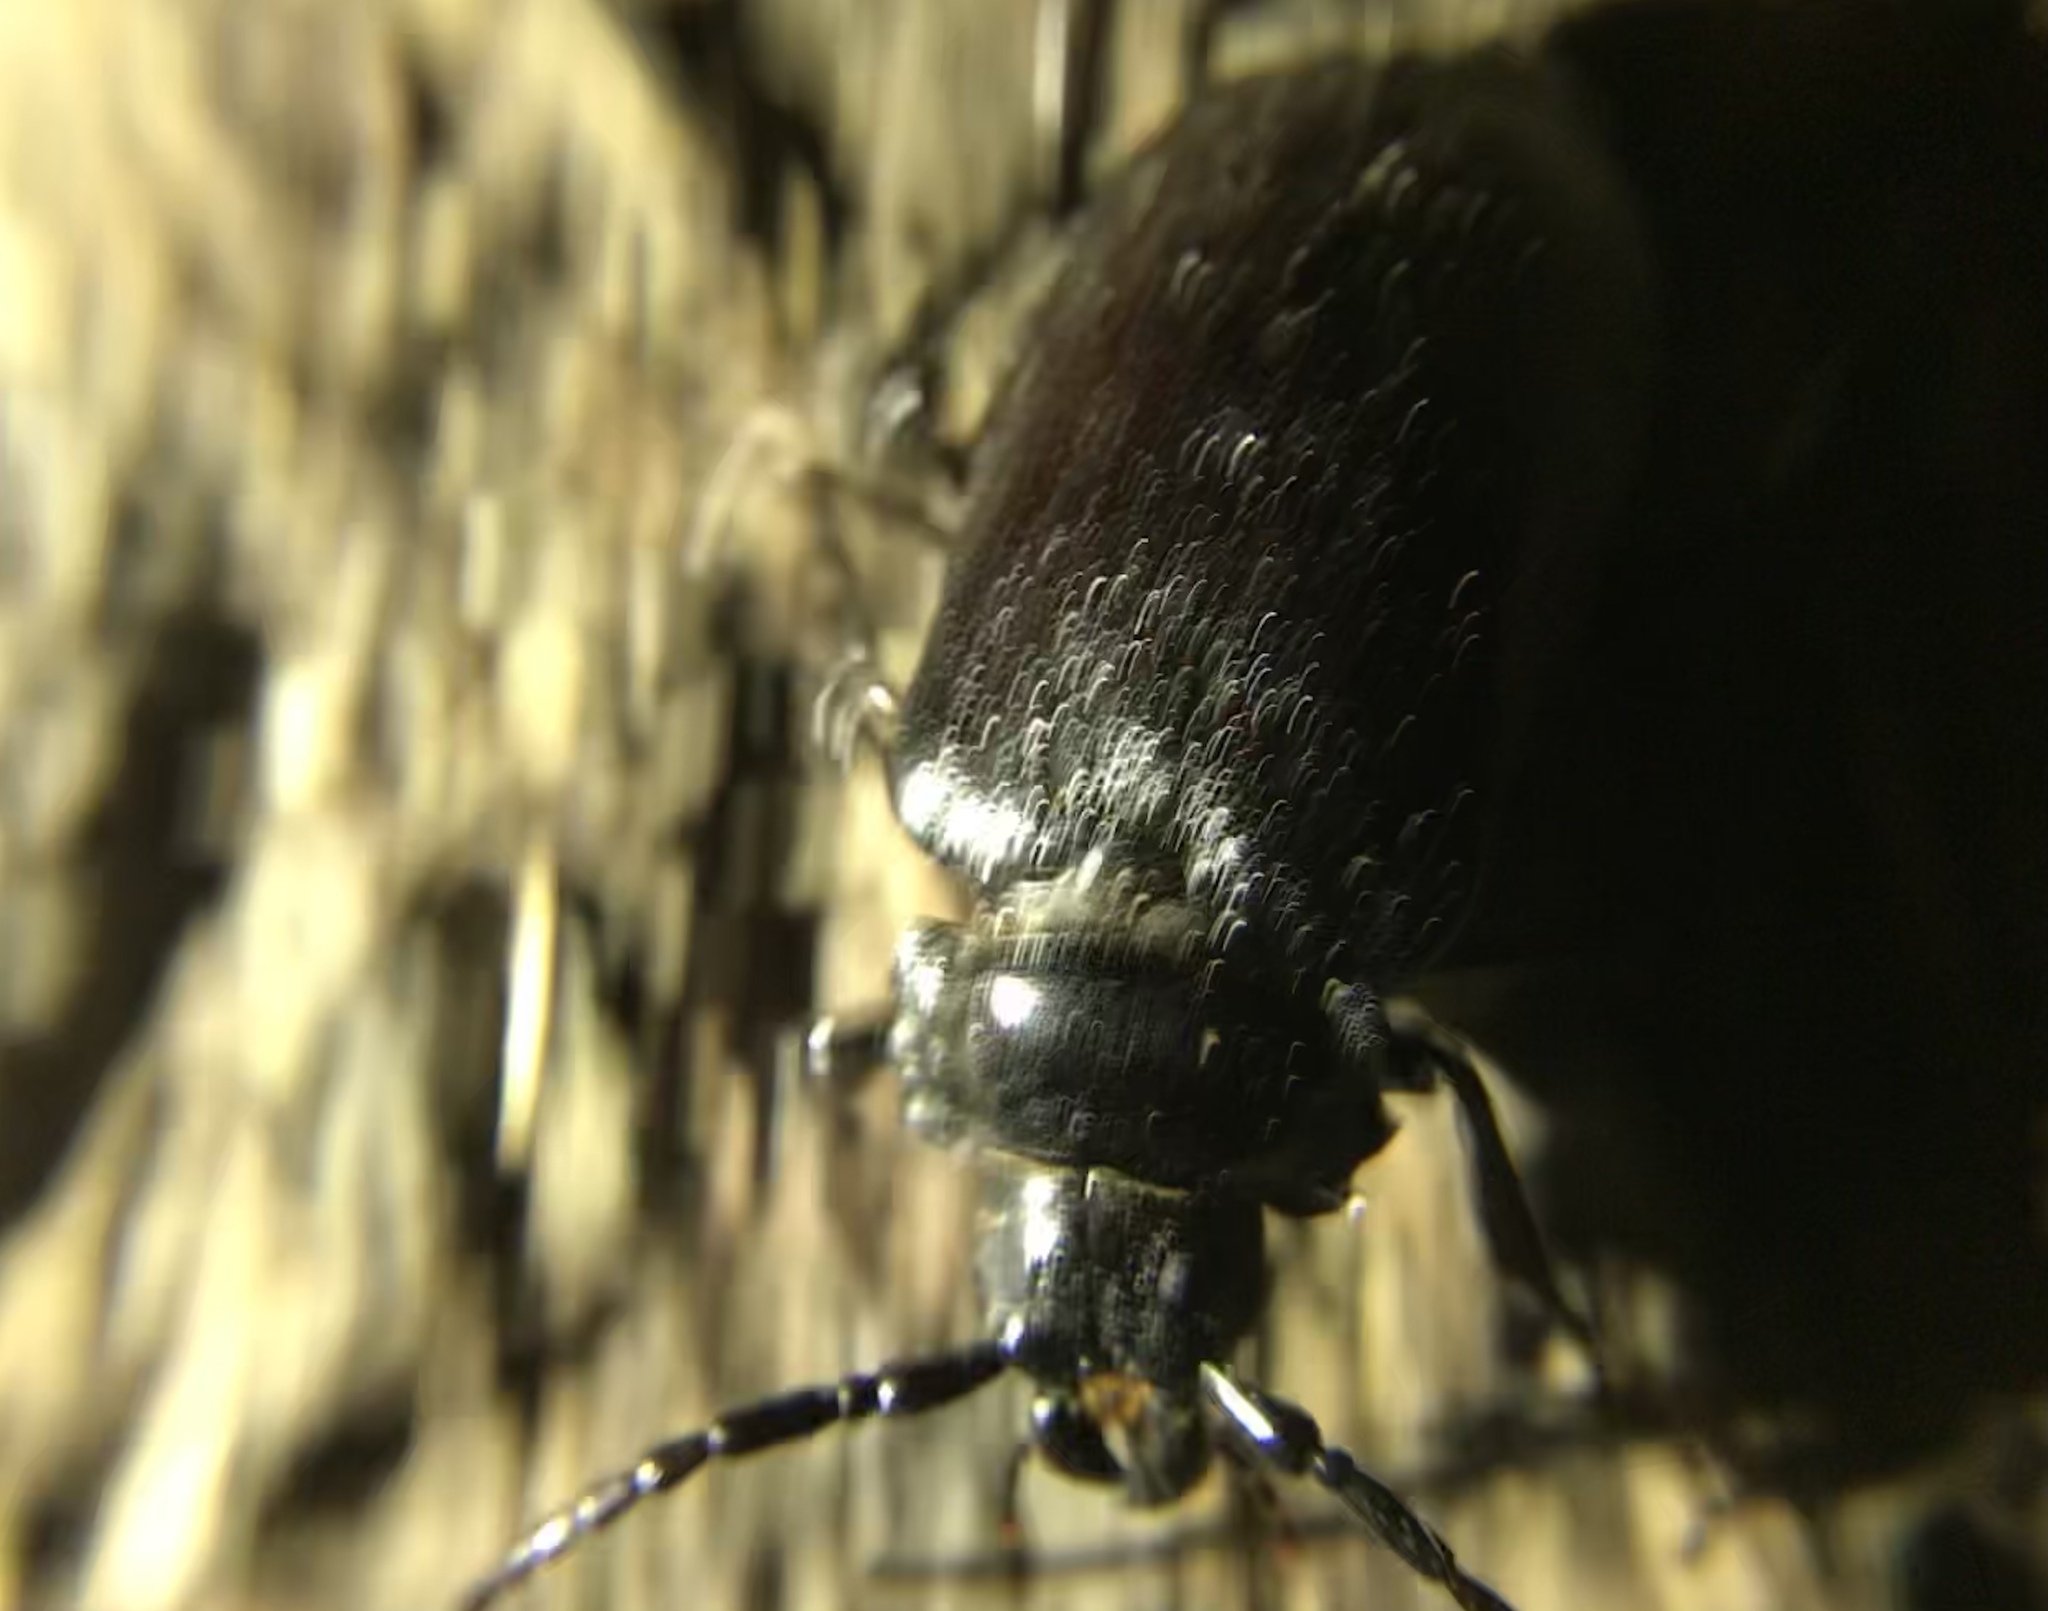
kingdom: Animalia
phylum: Arthropoda
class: Insecta
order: Coleoptera
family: Cerambycidae
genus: Prionus
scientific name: Prionus laticollis
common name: Broad necked prionus
